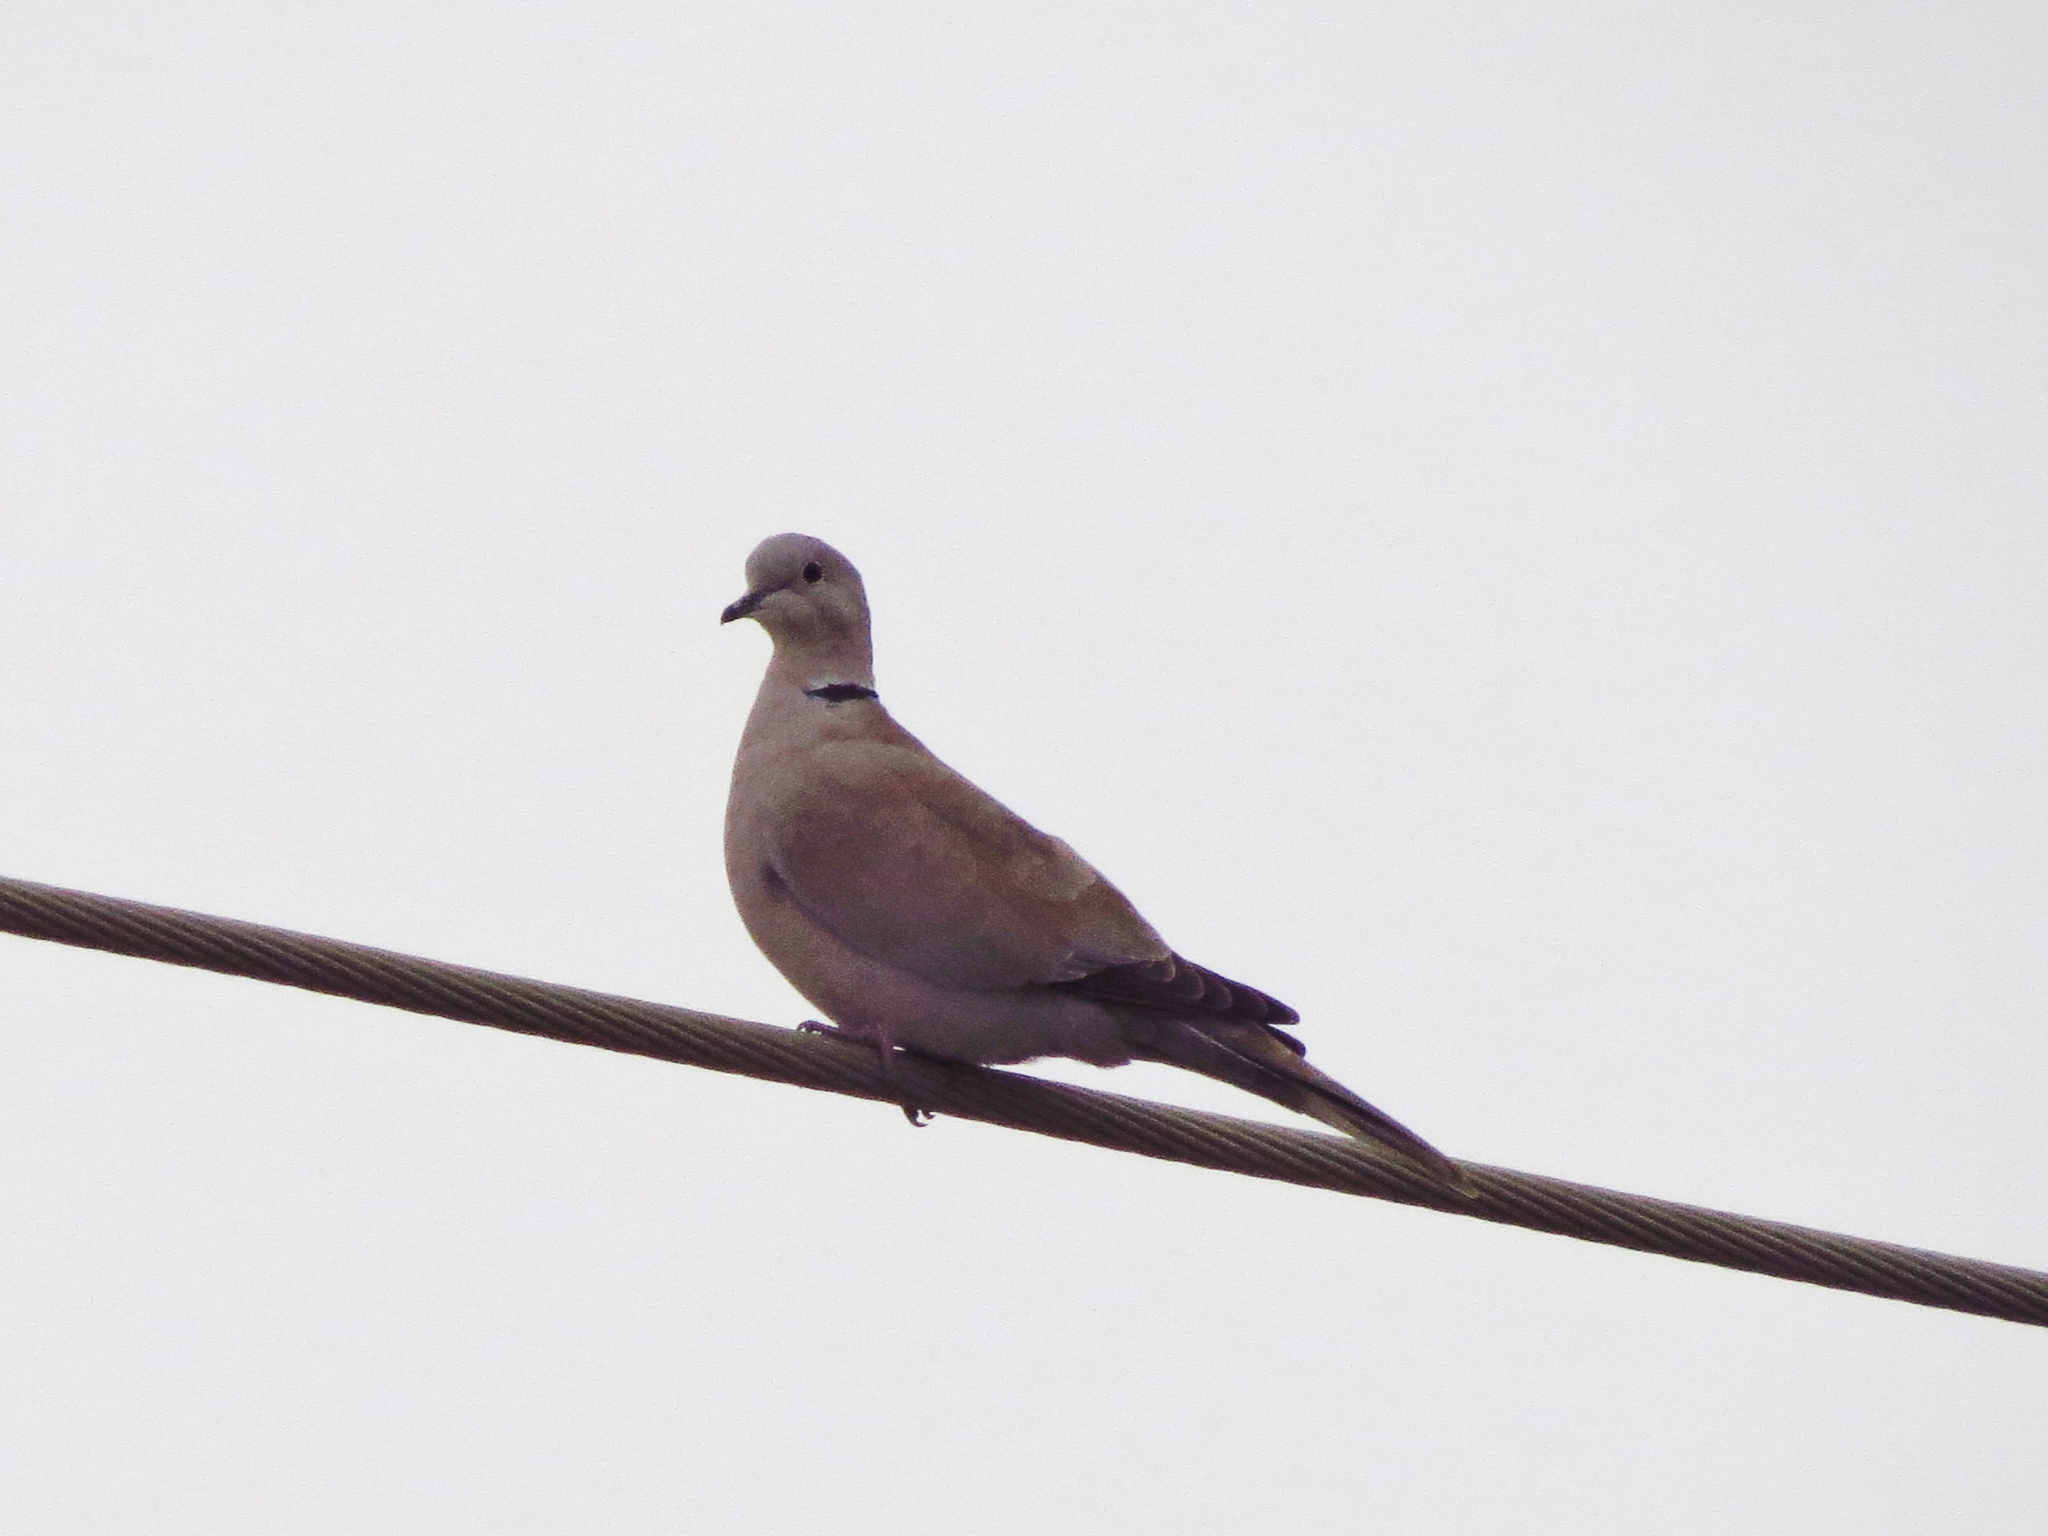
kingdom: Animalia
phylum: Chordata
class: Aves
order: Columbiformes
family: Columbidae
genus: Streptopelia
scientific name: Streptopelia decaocto
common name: Eurasian collared dove
